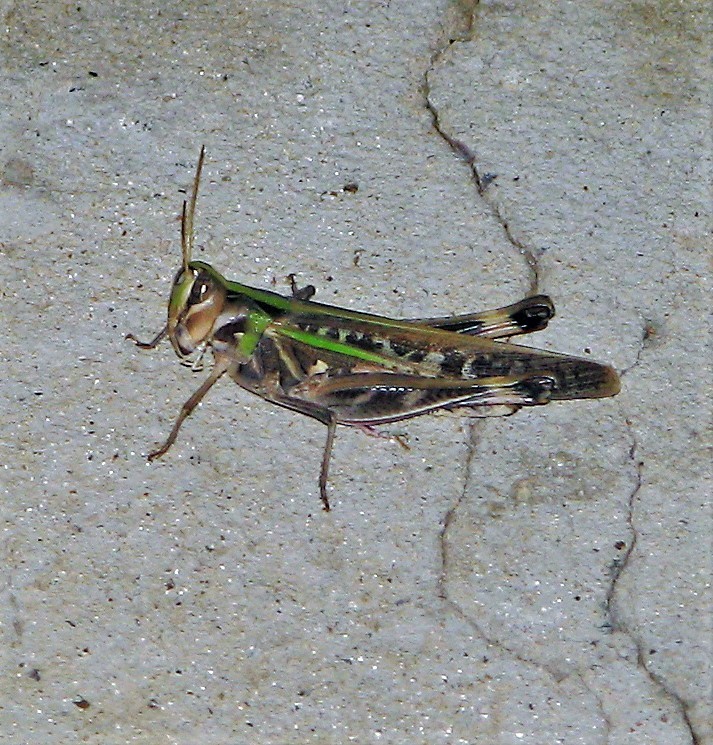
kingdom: Animalia
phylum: Arthropoda
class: Insecta
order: Orthoptera
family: Acrididae
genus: Rhammatocerus
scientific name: Rhammatocerus pictus
